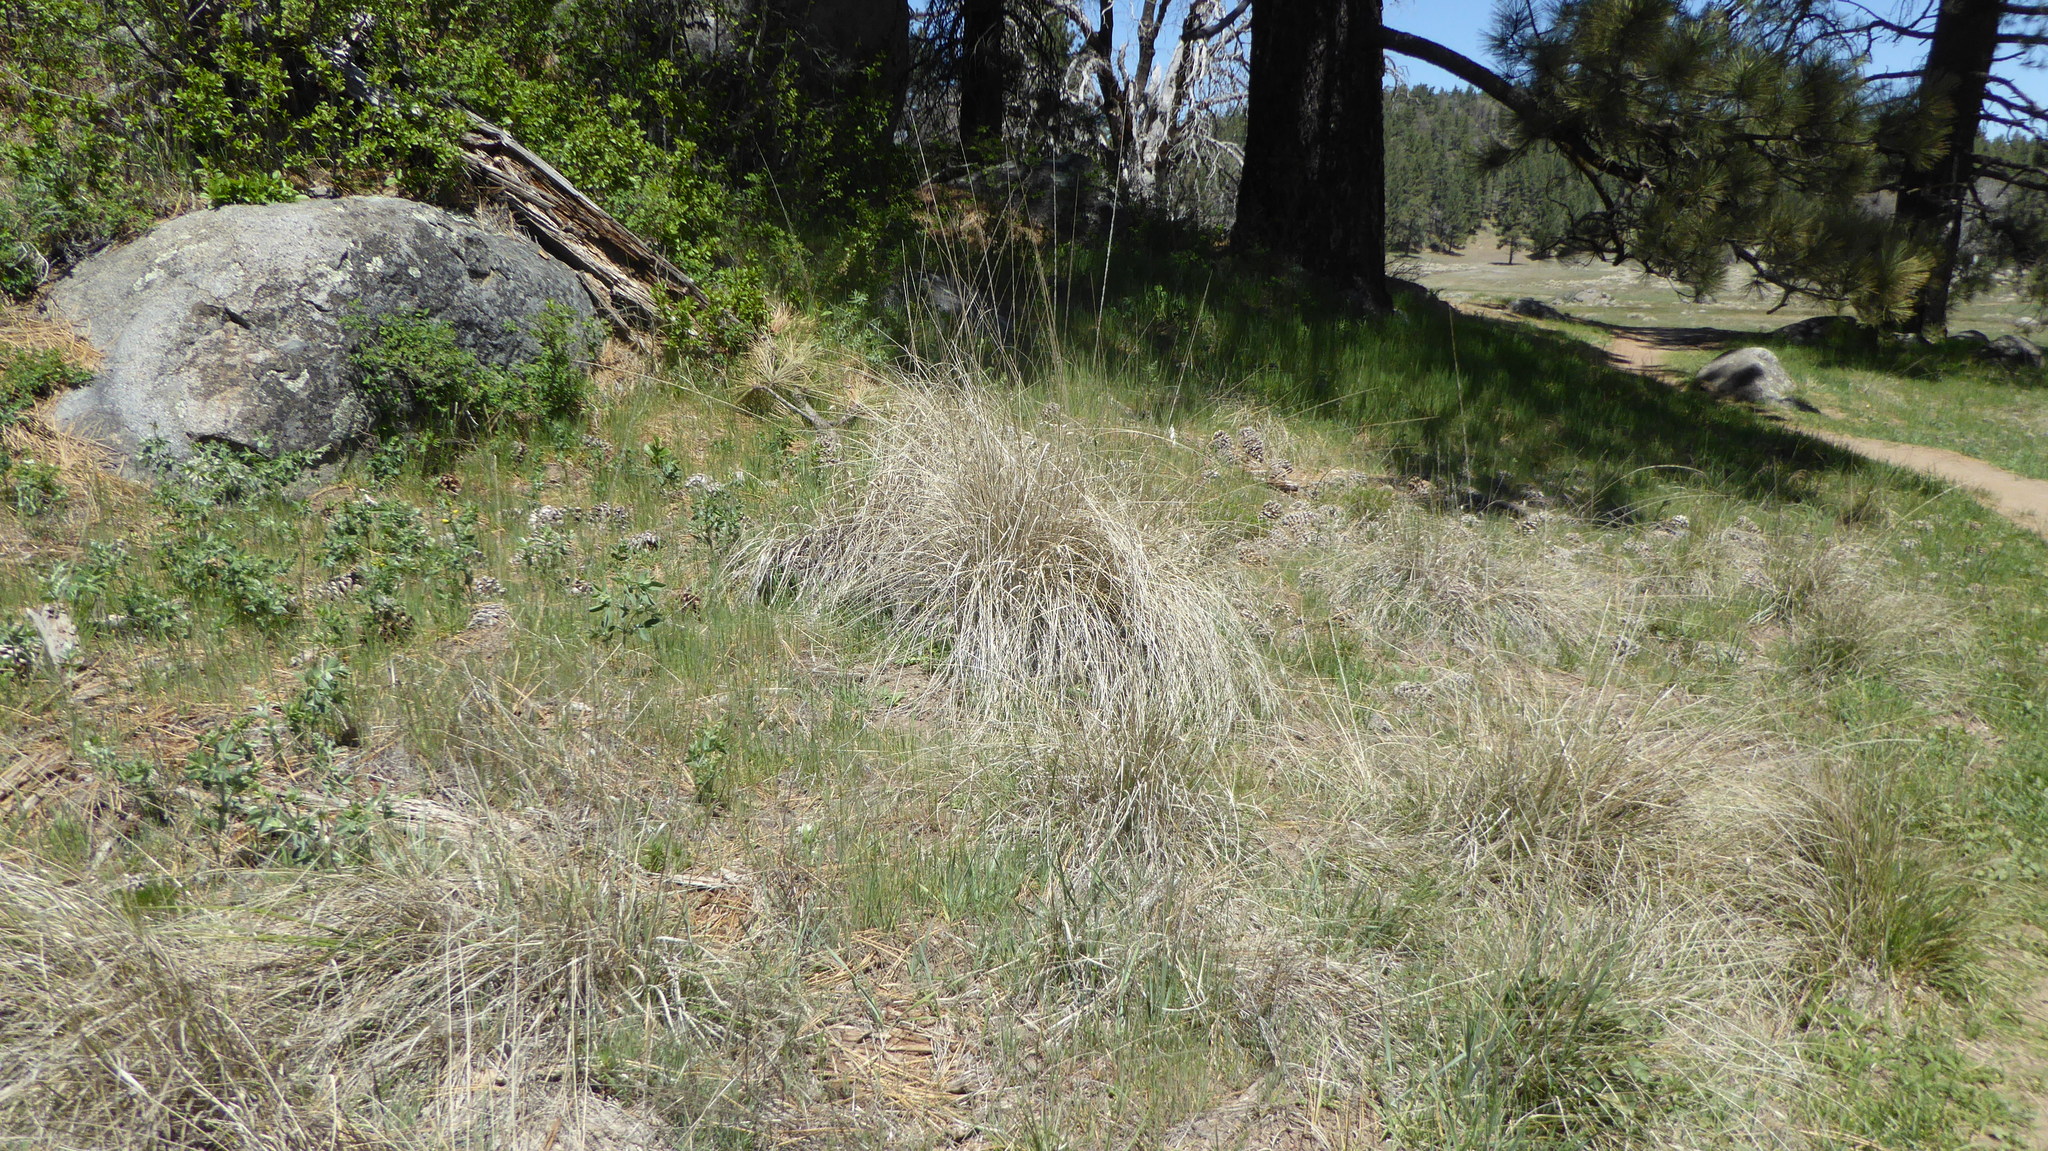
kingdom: Plantae
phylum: Tracheophyta
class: Liliopsida
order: Poales
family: Poaceae
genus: Muhlenbergia
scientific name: Muhlenbergia rigens
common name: Deer grass
